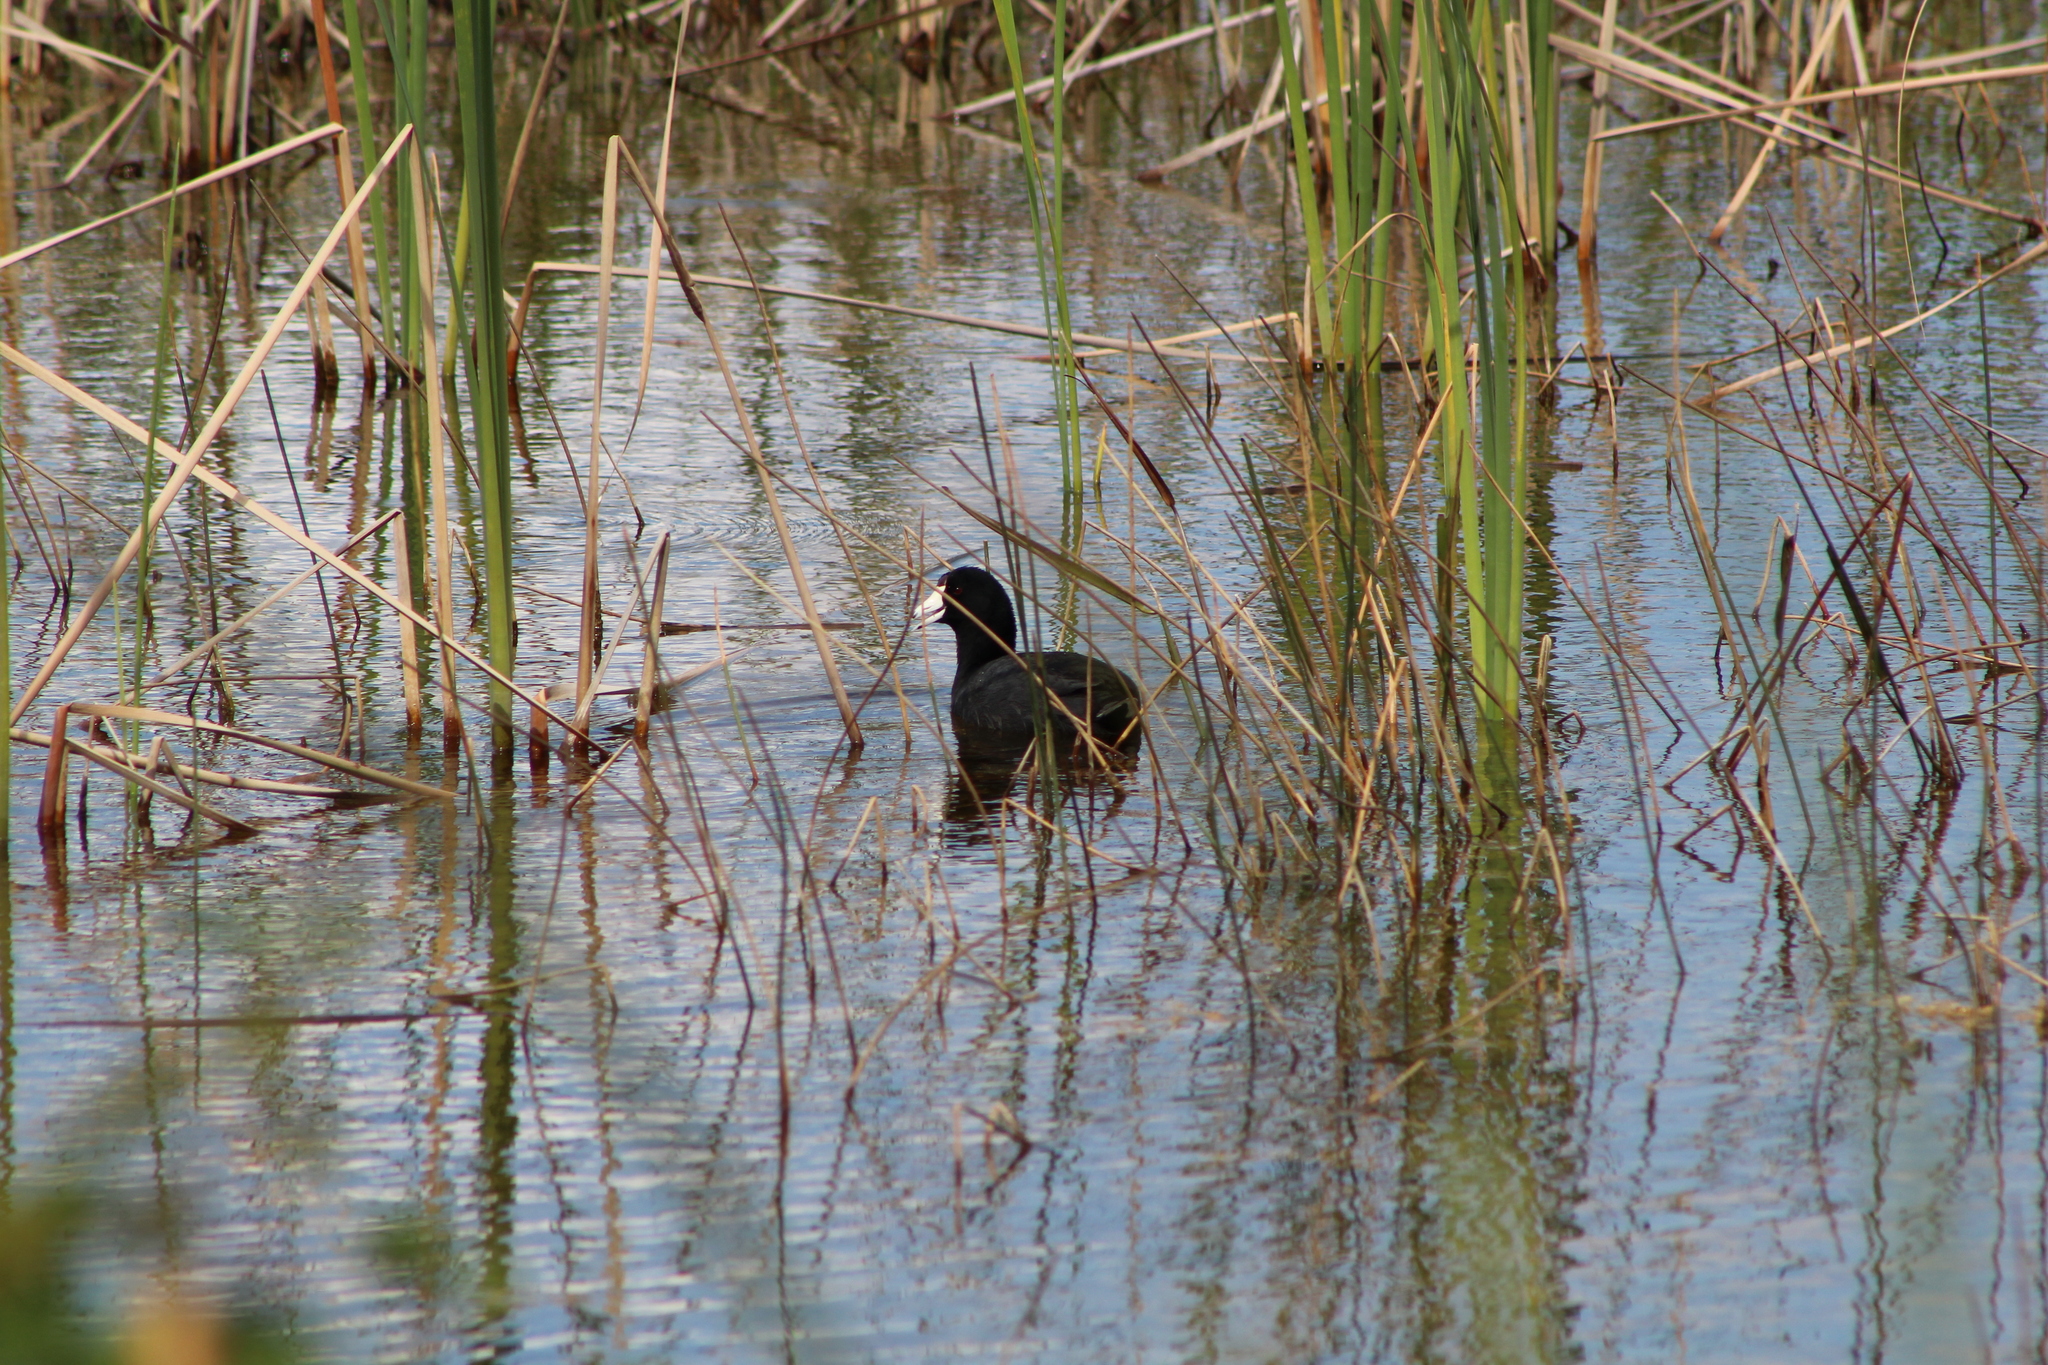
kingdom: Animalia
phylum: Chordata
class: Aves
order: Gruiformes
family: Rallidae
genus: Fulica
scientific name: Fulica americana
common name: American coot
